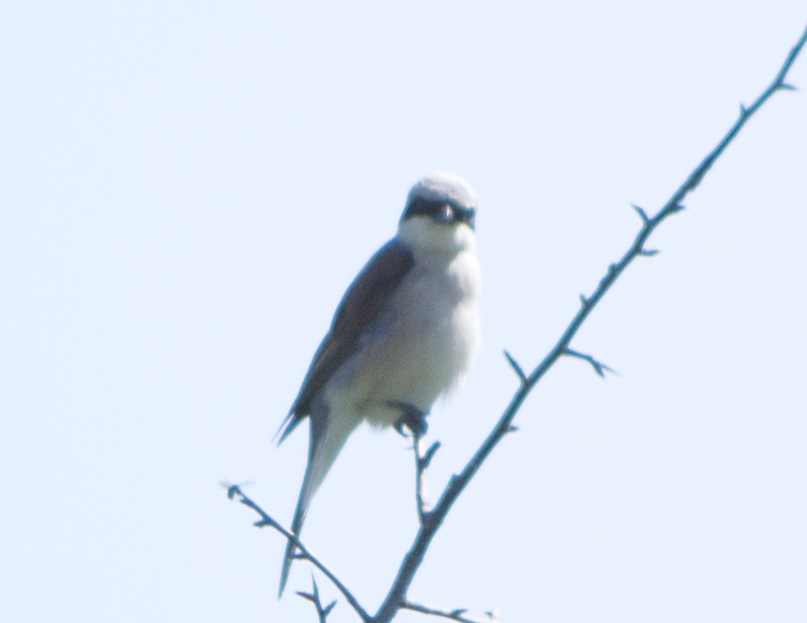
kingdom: Animalia
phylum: Chordata
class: Aves
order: Passeriformes
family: Laniidae
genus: Lanius
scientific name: Lanius collurio
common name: Red-backed shrike
